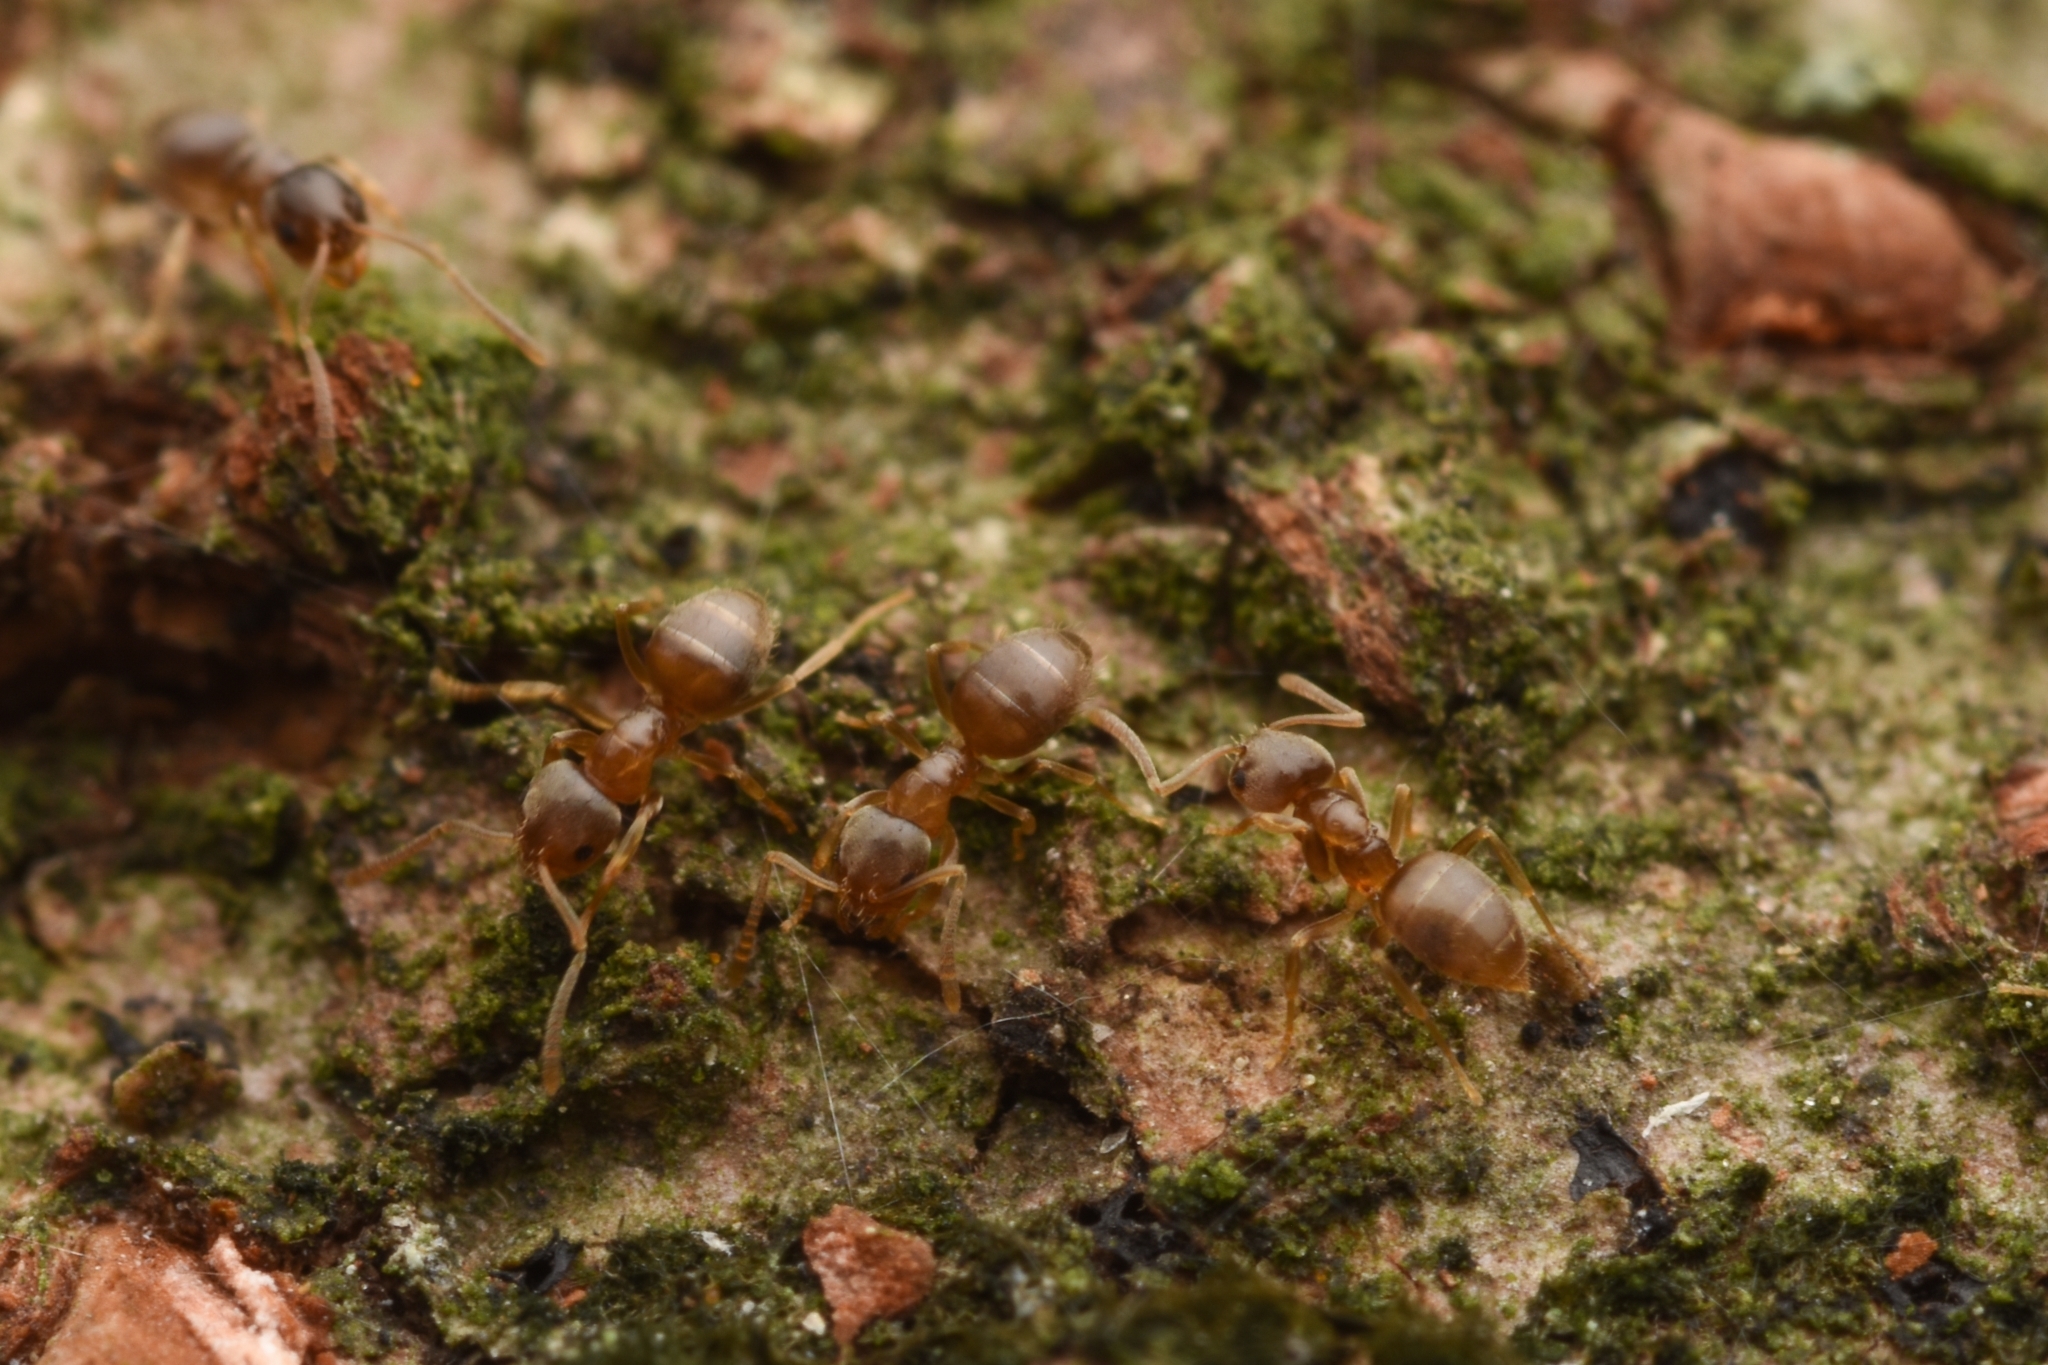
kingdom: Animalia
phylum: Arthropoda
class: Insecta
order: Hymenoptera
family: Formicidae
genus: Paraparatrechina
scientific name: Paraparatrechina
